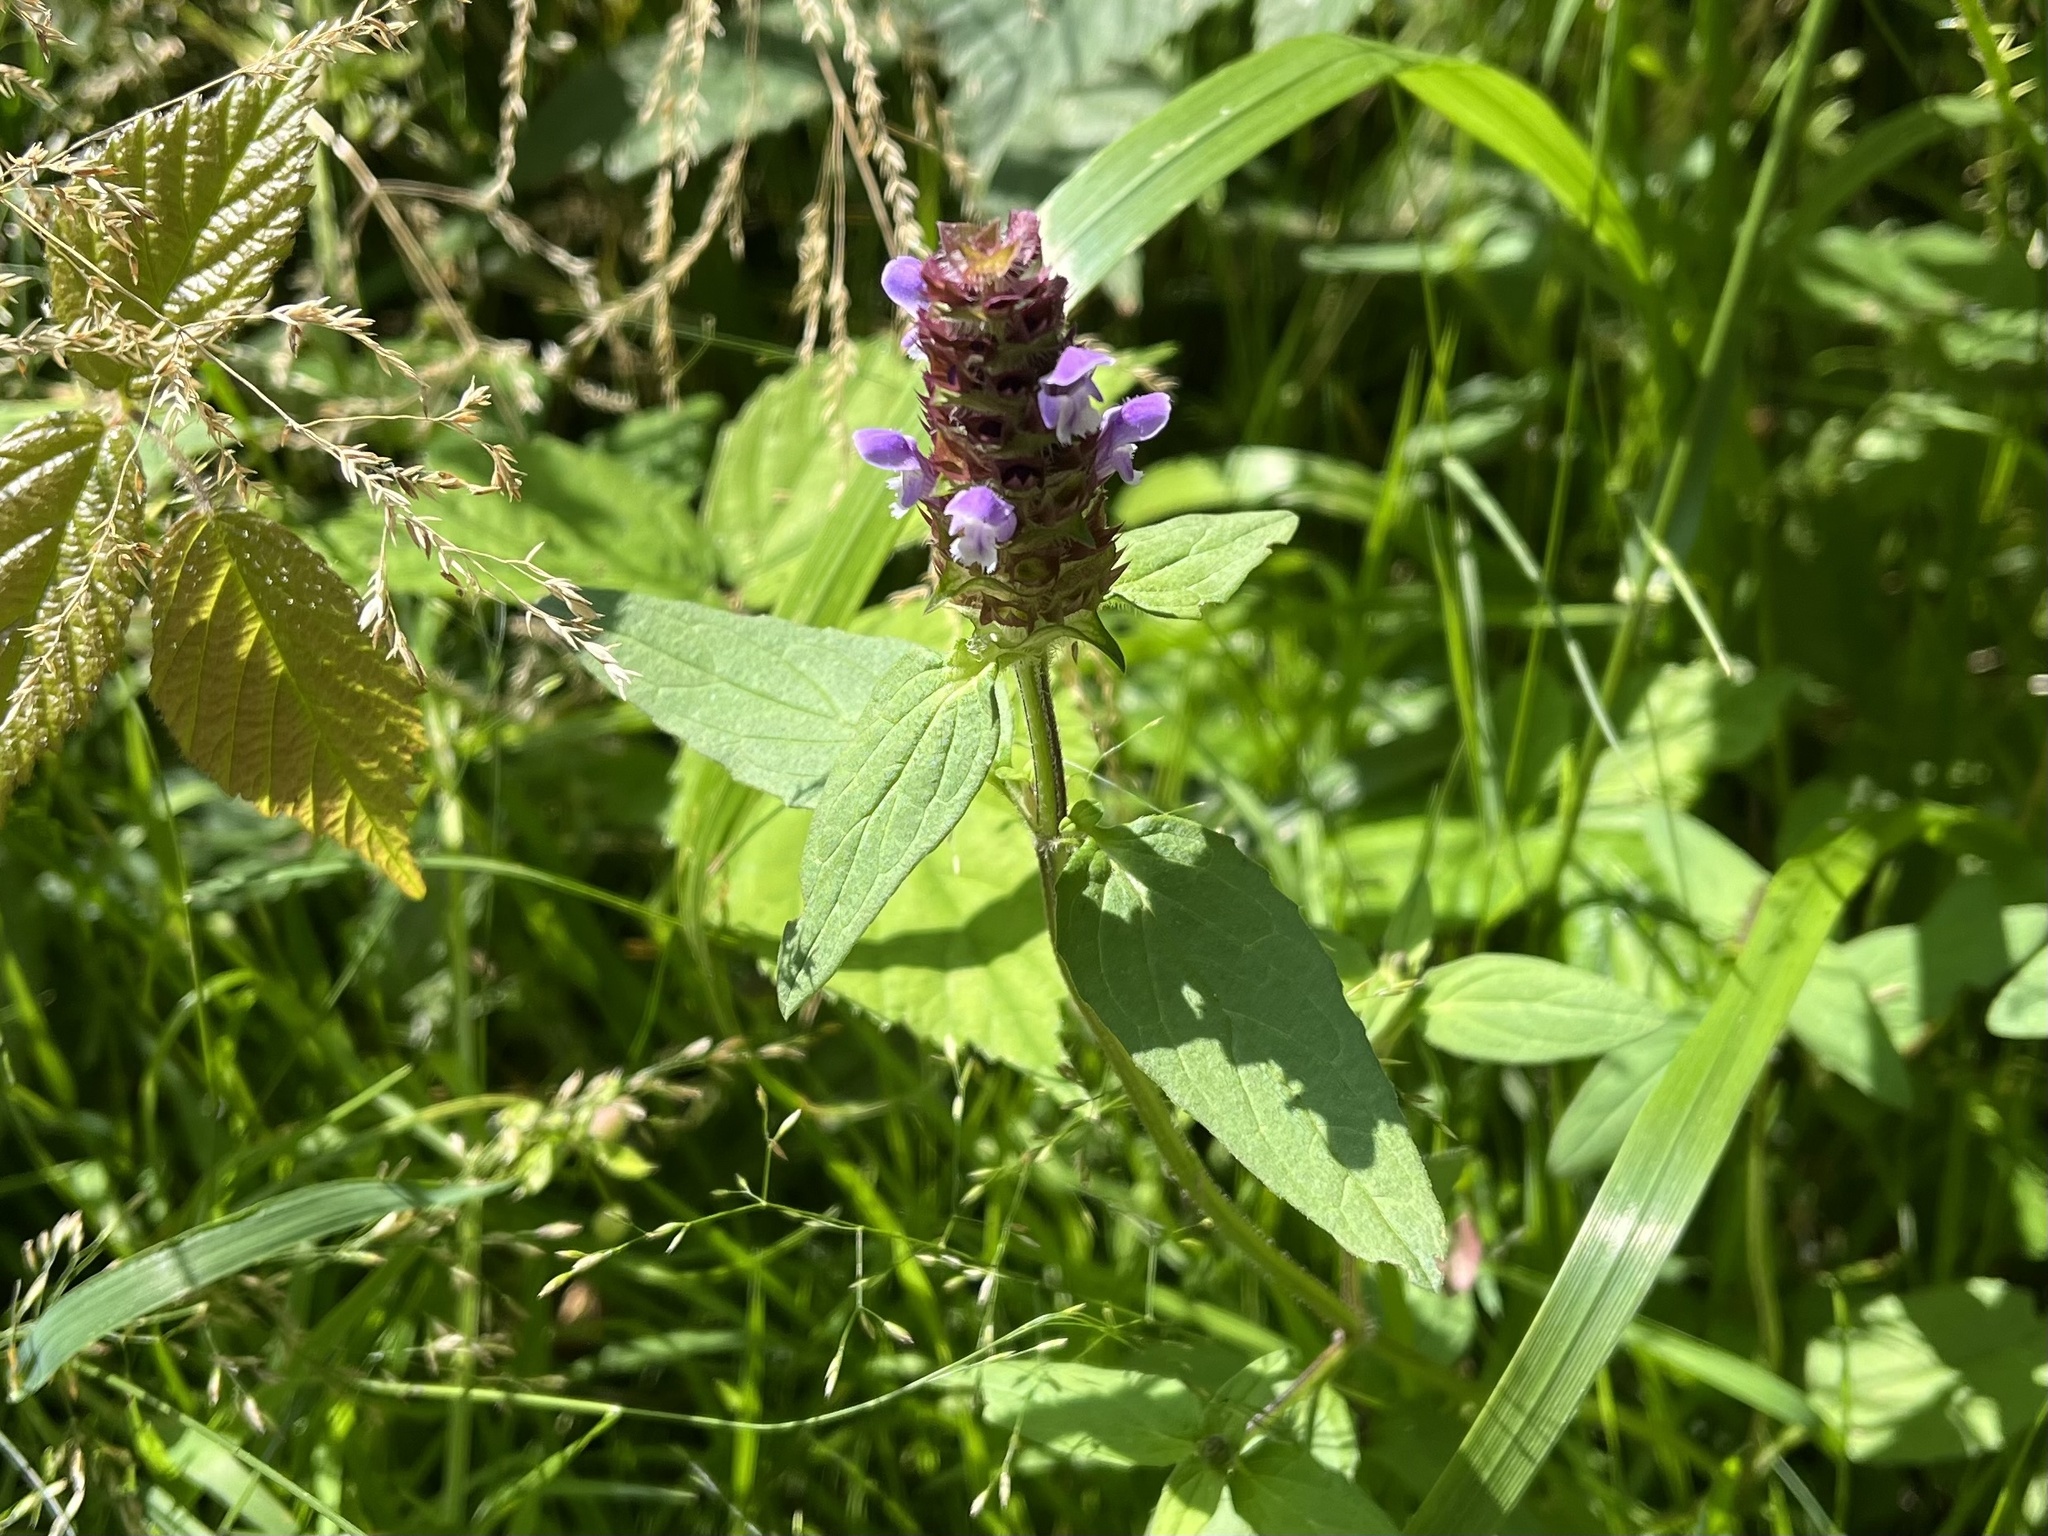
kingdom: Plantae
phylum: Tracheophyta
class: Magnoliopsida
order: Lamiales
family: Lamiaceae
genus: Prunella
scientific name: Prunella vulgaris
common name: Heal-all
